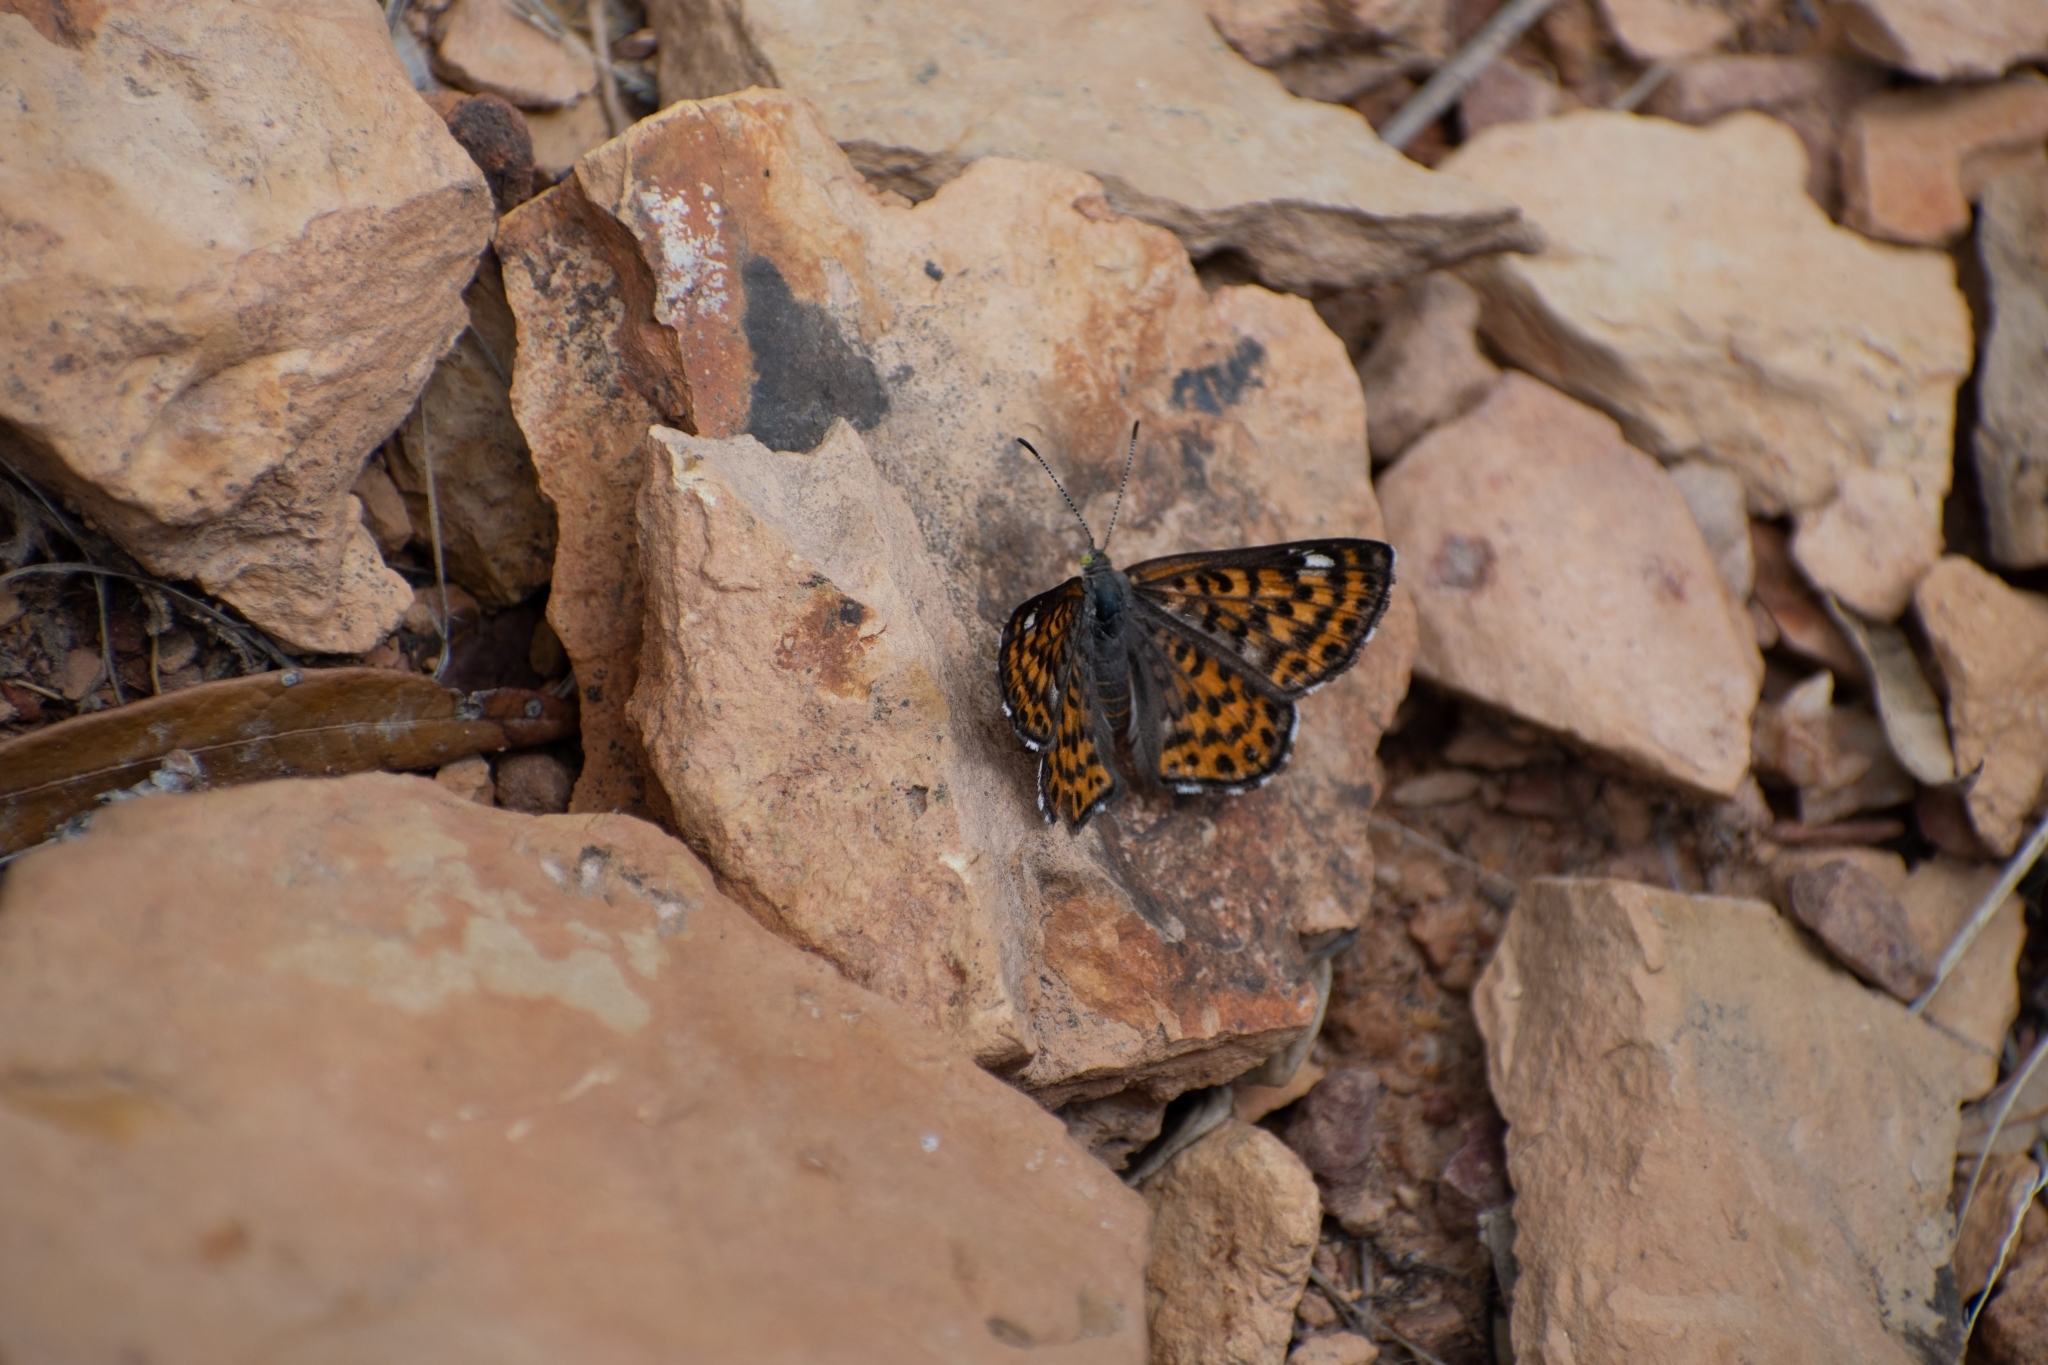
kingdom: Animalia
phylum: Arthropoda
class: Insecta
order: Lepidoptera
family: Riodinidae
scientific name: Riodinidae
